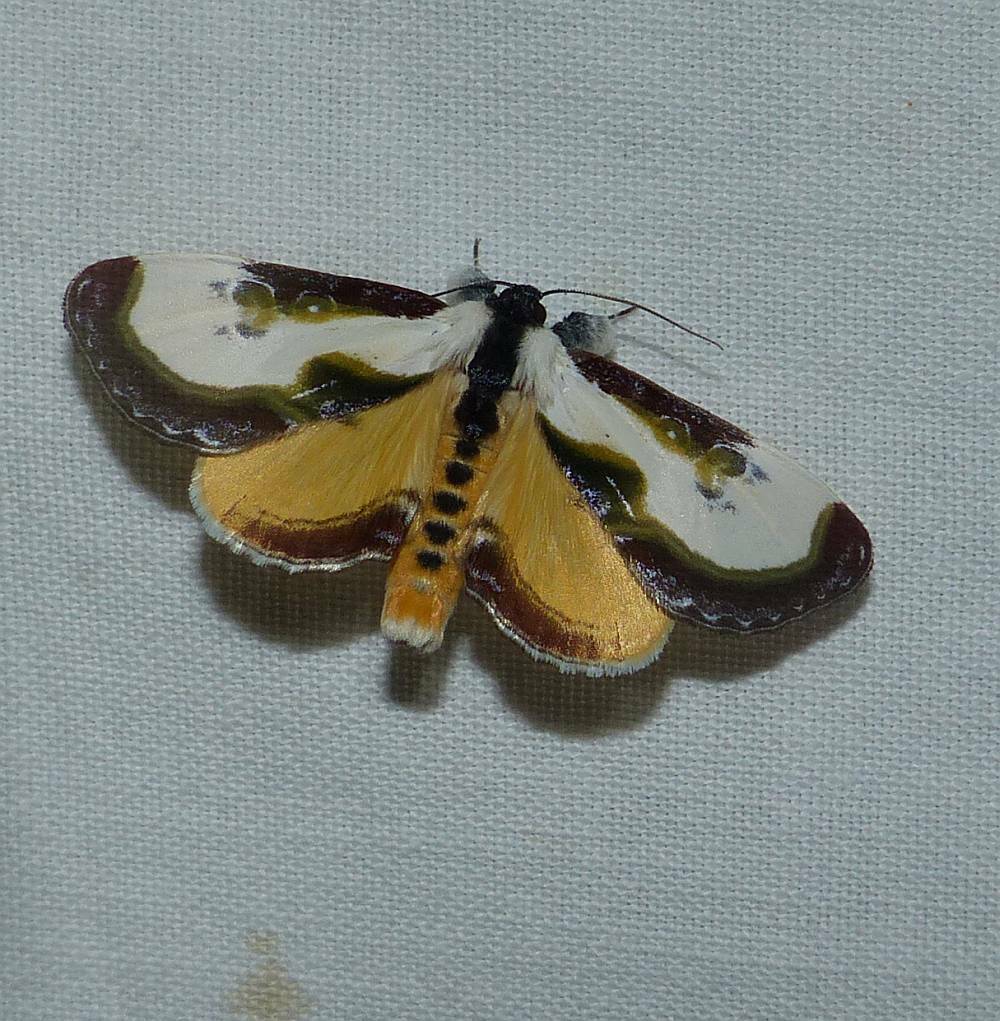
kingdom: Animalia
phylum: Arthropoda
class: Insecta
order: Lepidoptera
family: Noctuidae
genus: Eudryas
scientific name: Eudryas grata
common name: Beautiful wood-nymph
